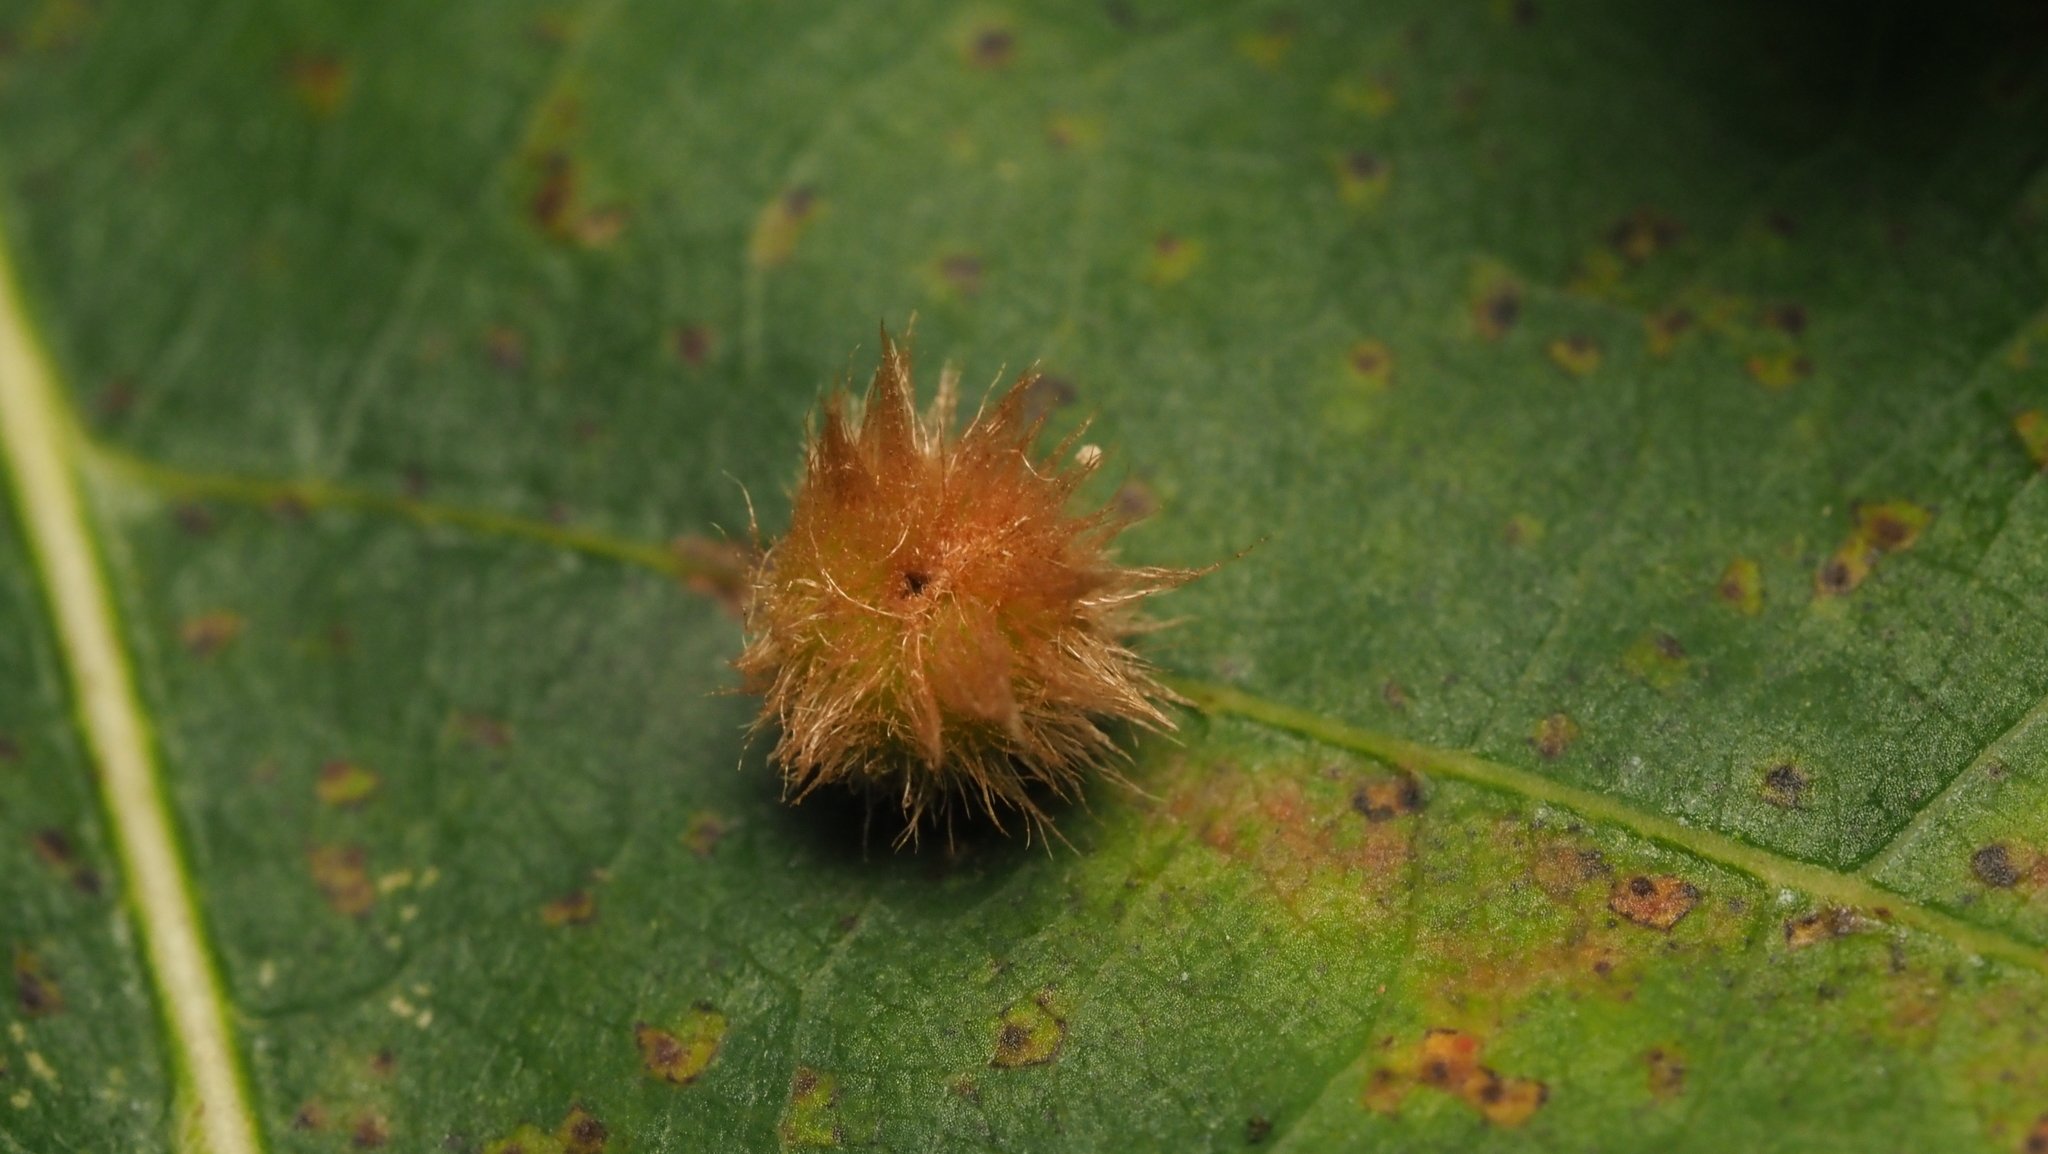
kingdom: Animalia
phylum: Arthropoda
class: Insecta
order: Hymenoptera
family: Cynipidae
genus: Callirhytis
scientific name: Callirhytis
